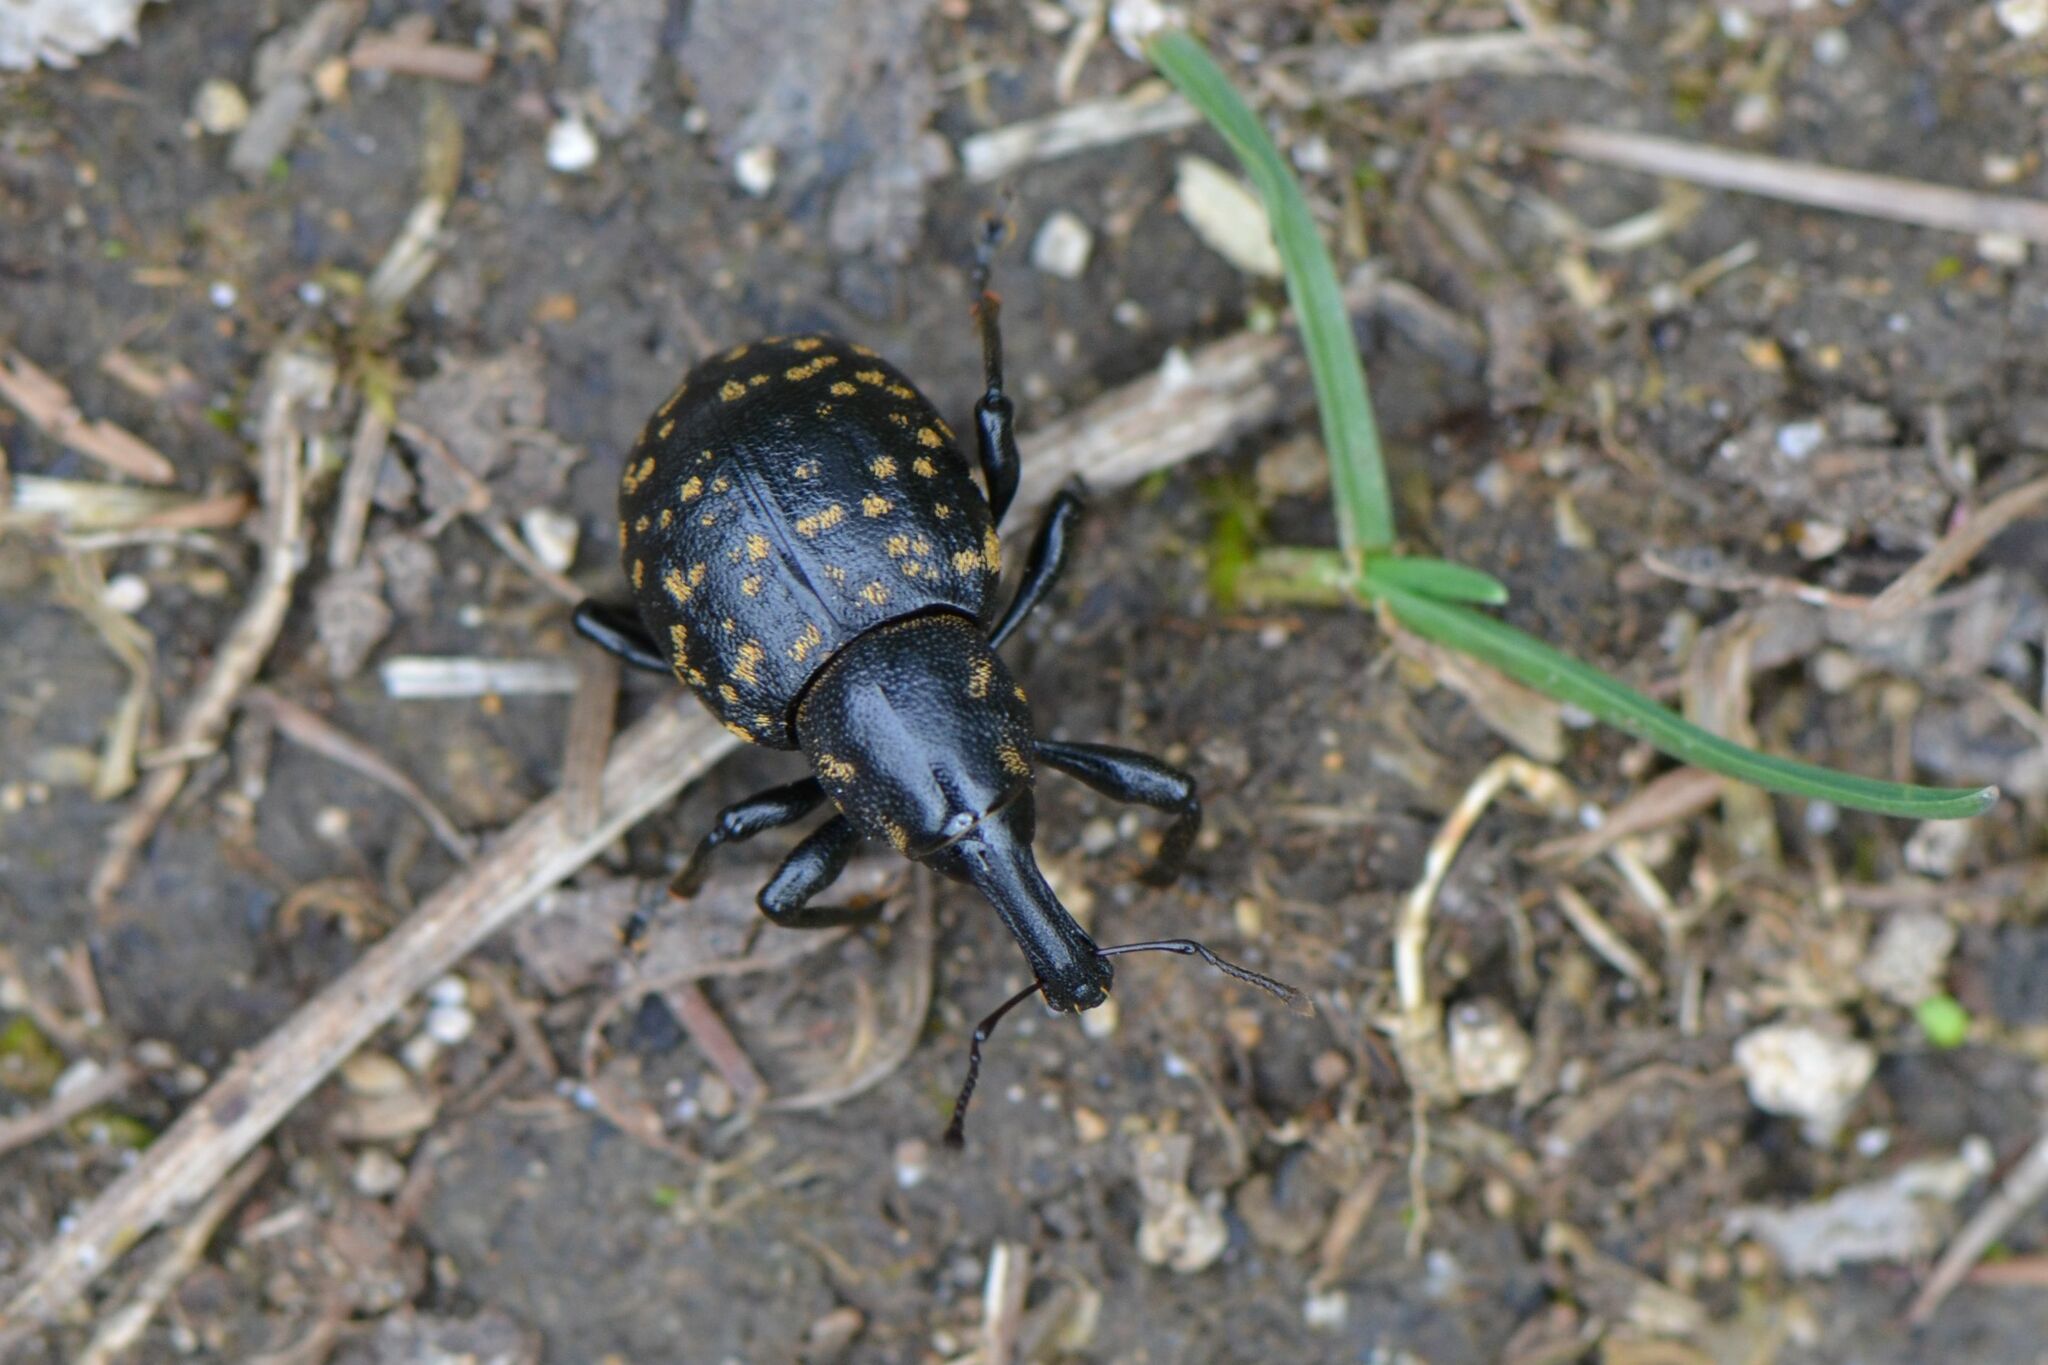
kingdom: Animalia
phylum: Arthropoda
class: Insecta
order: Coleoptera
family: Curculionidae
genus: Liparus
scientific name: Liparus germanus
